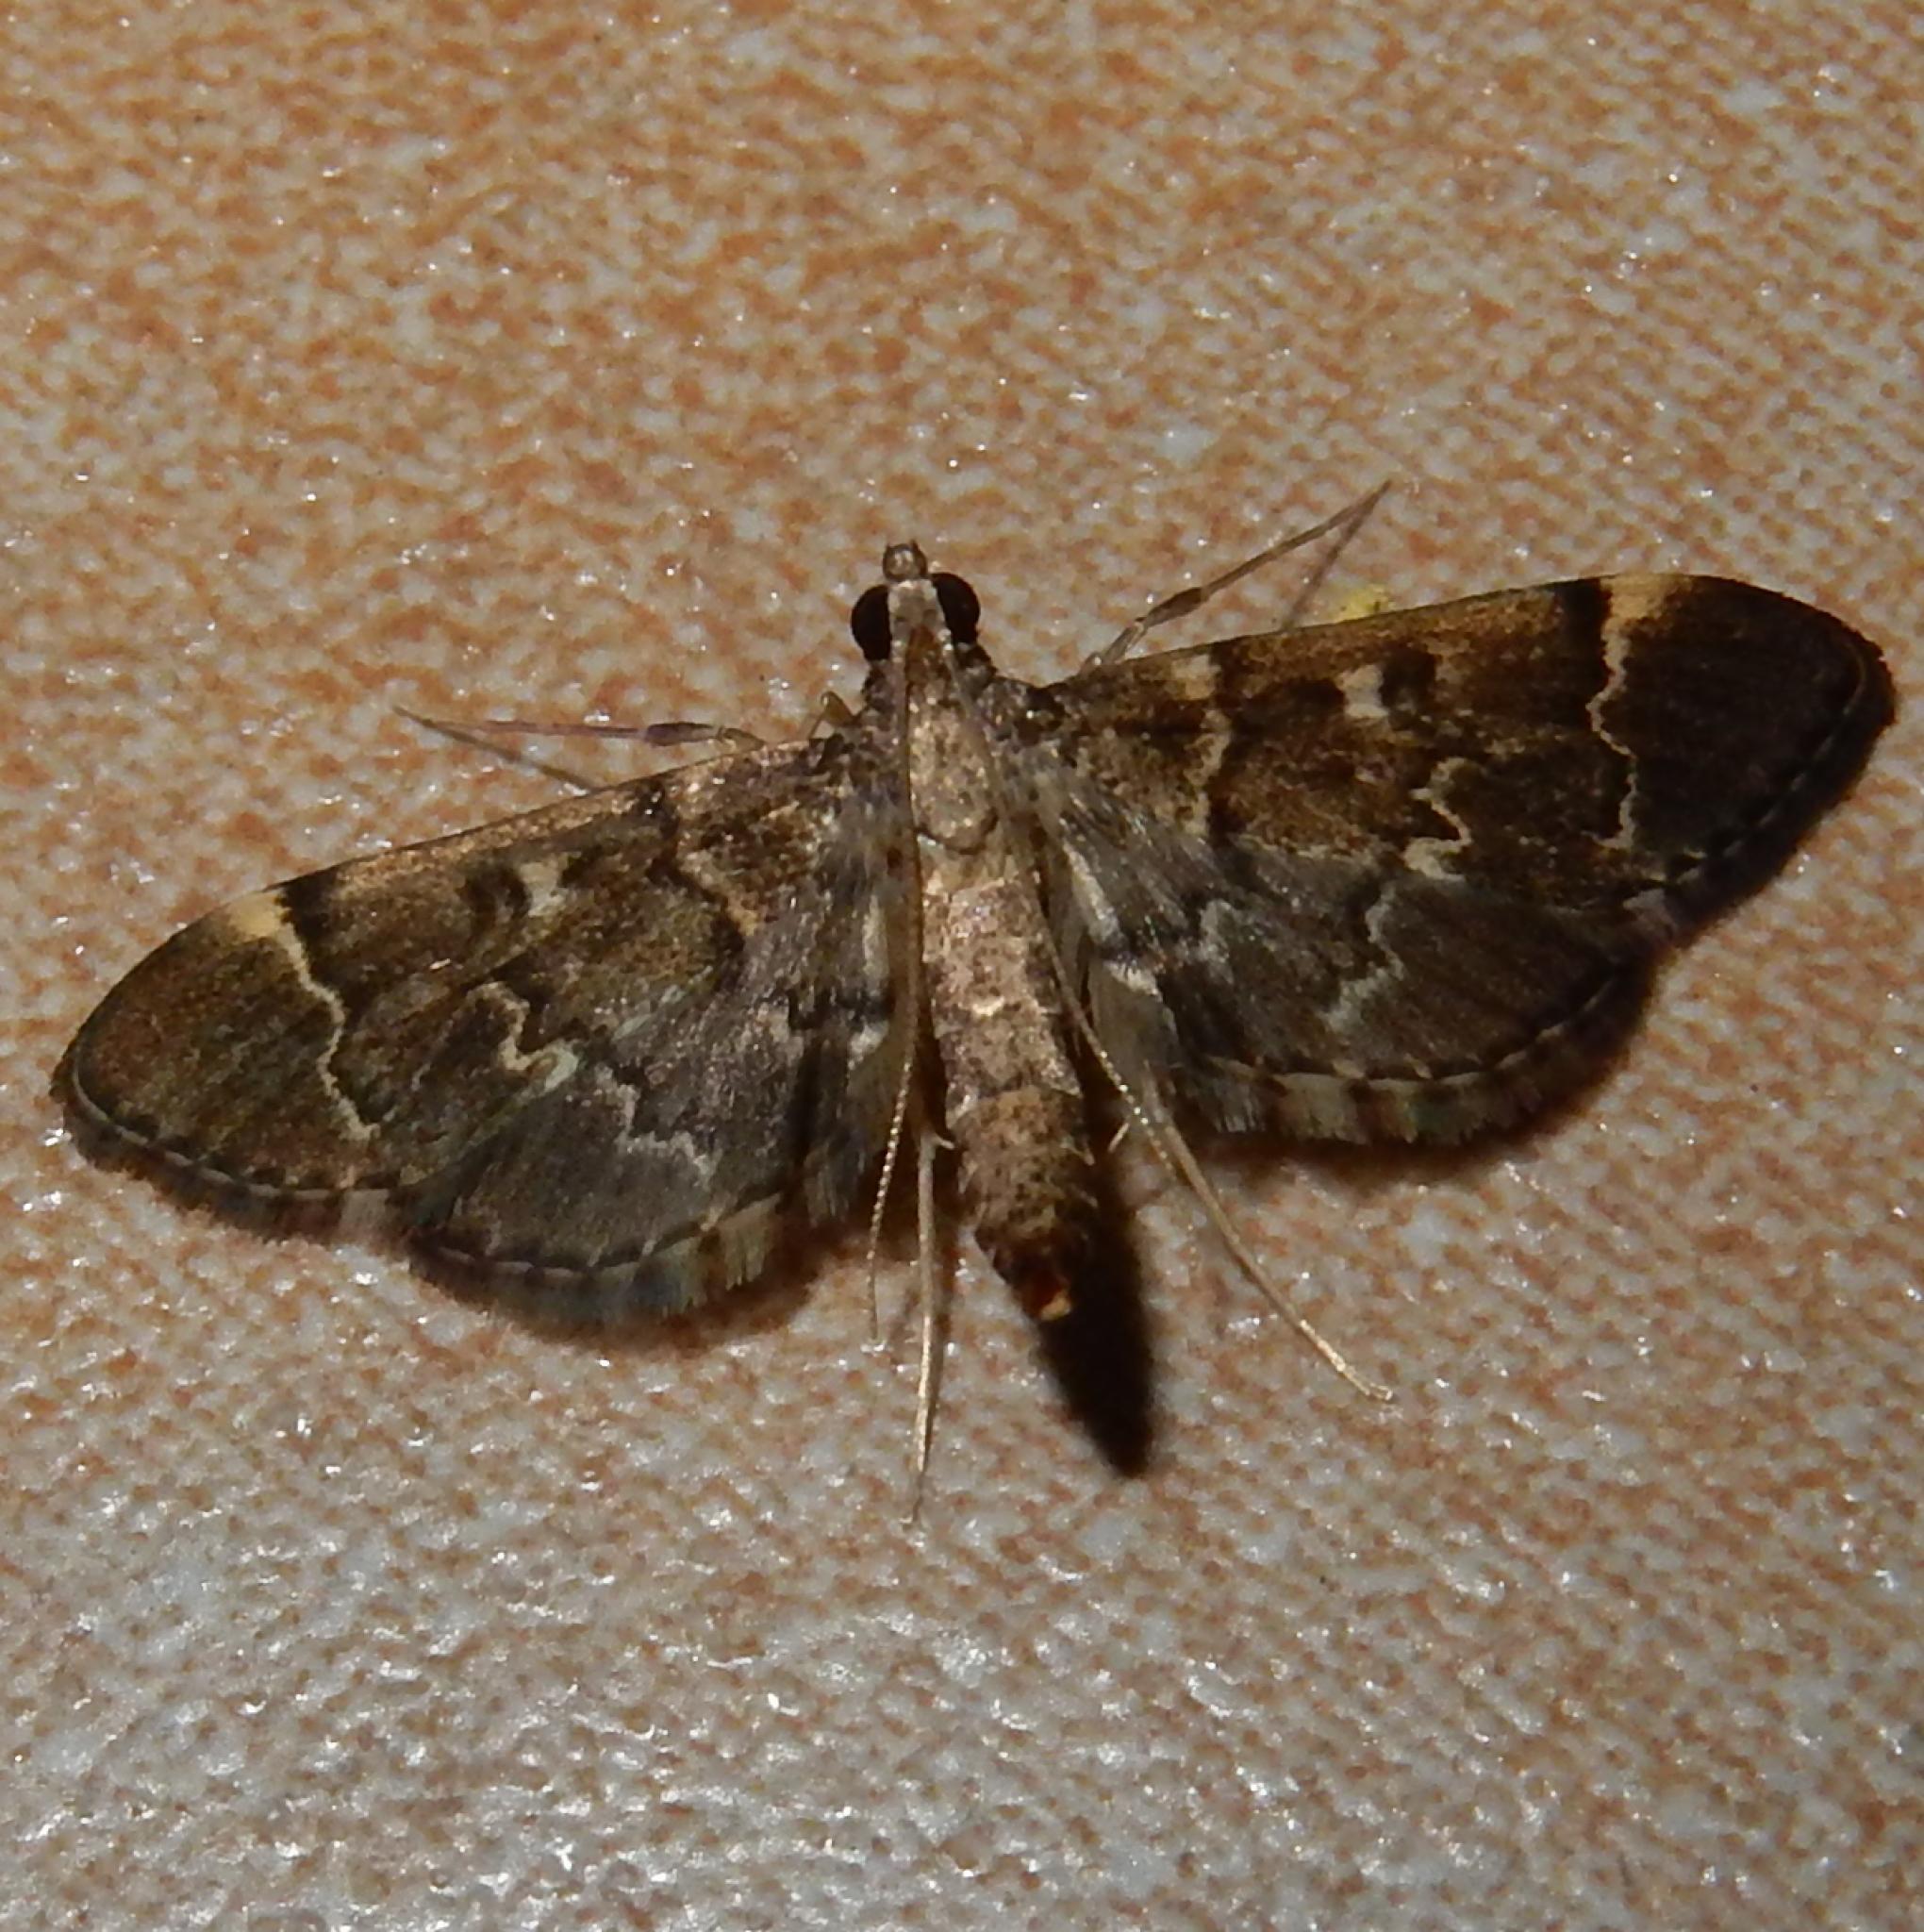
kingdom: Animalia
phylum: Arthropoda
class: Insecta
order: Lepidoptera
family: Crambidae
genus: Duponchelia
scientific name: Duponchelia lanceolalis
